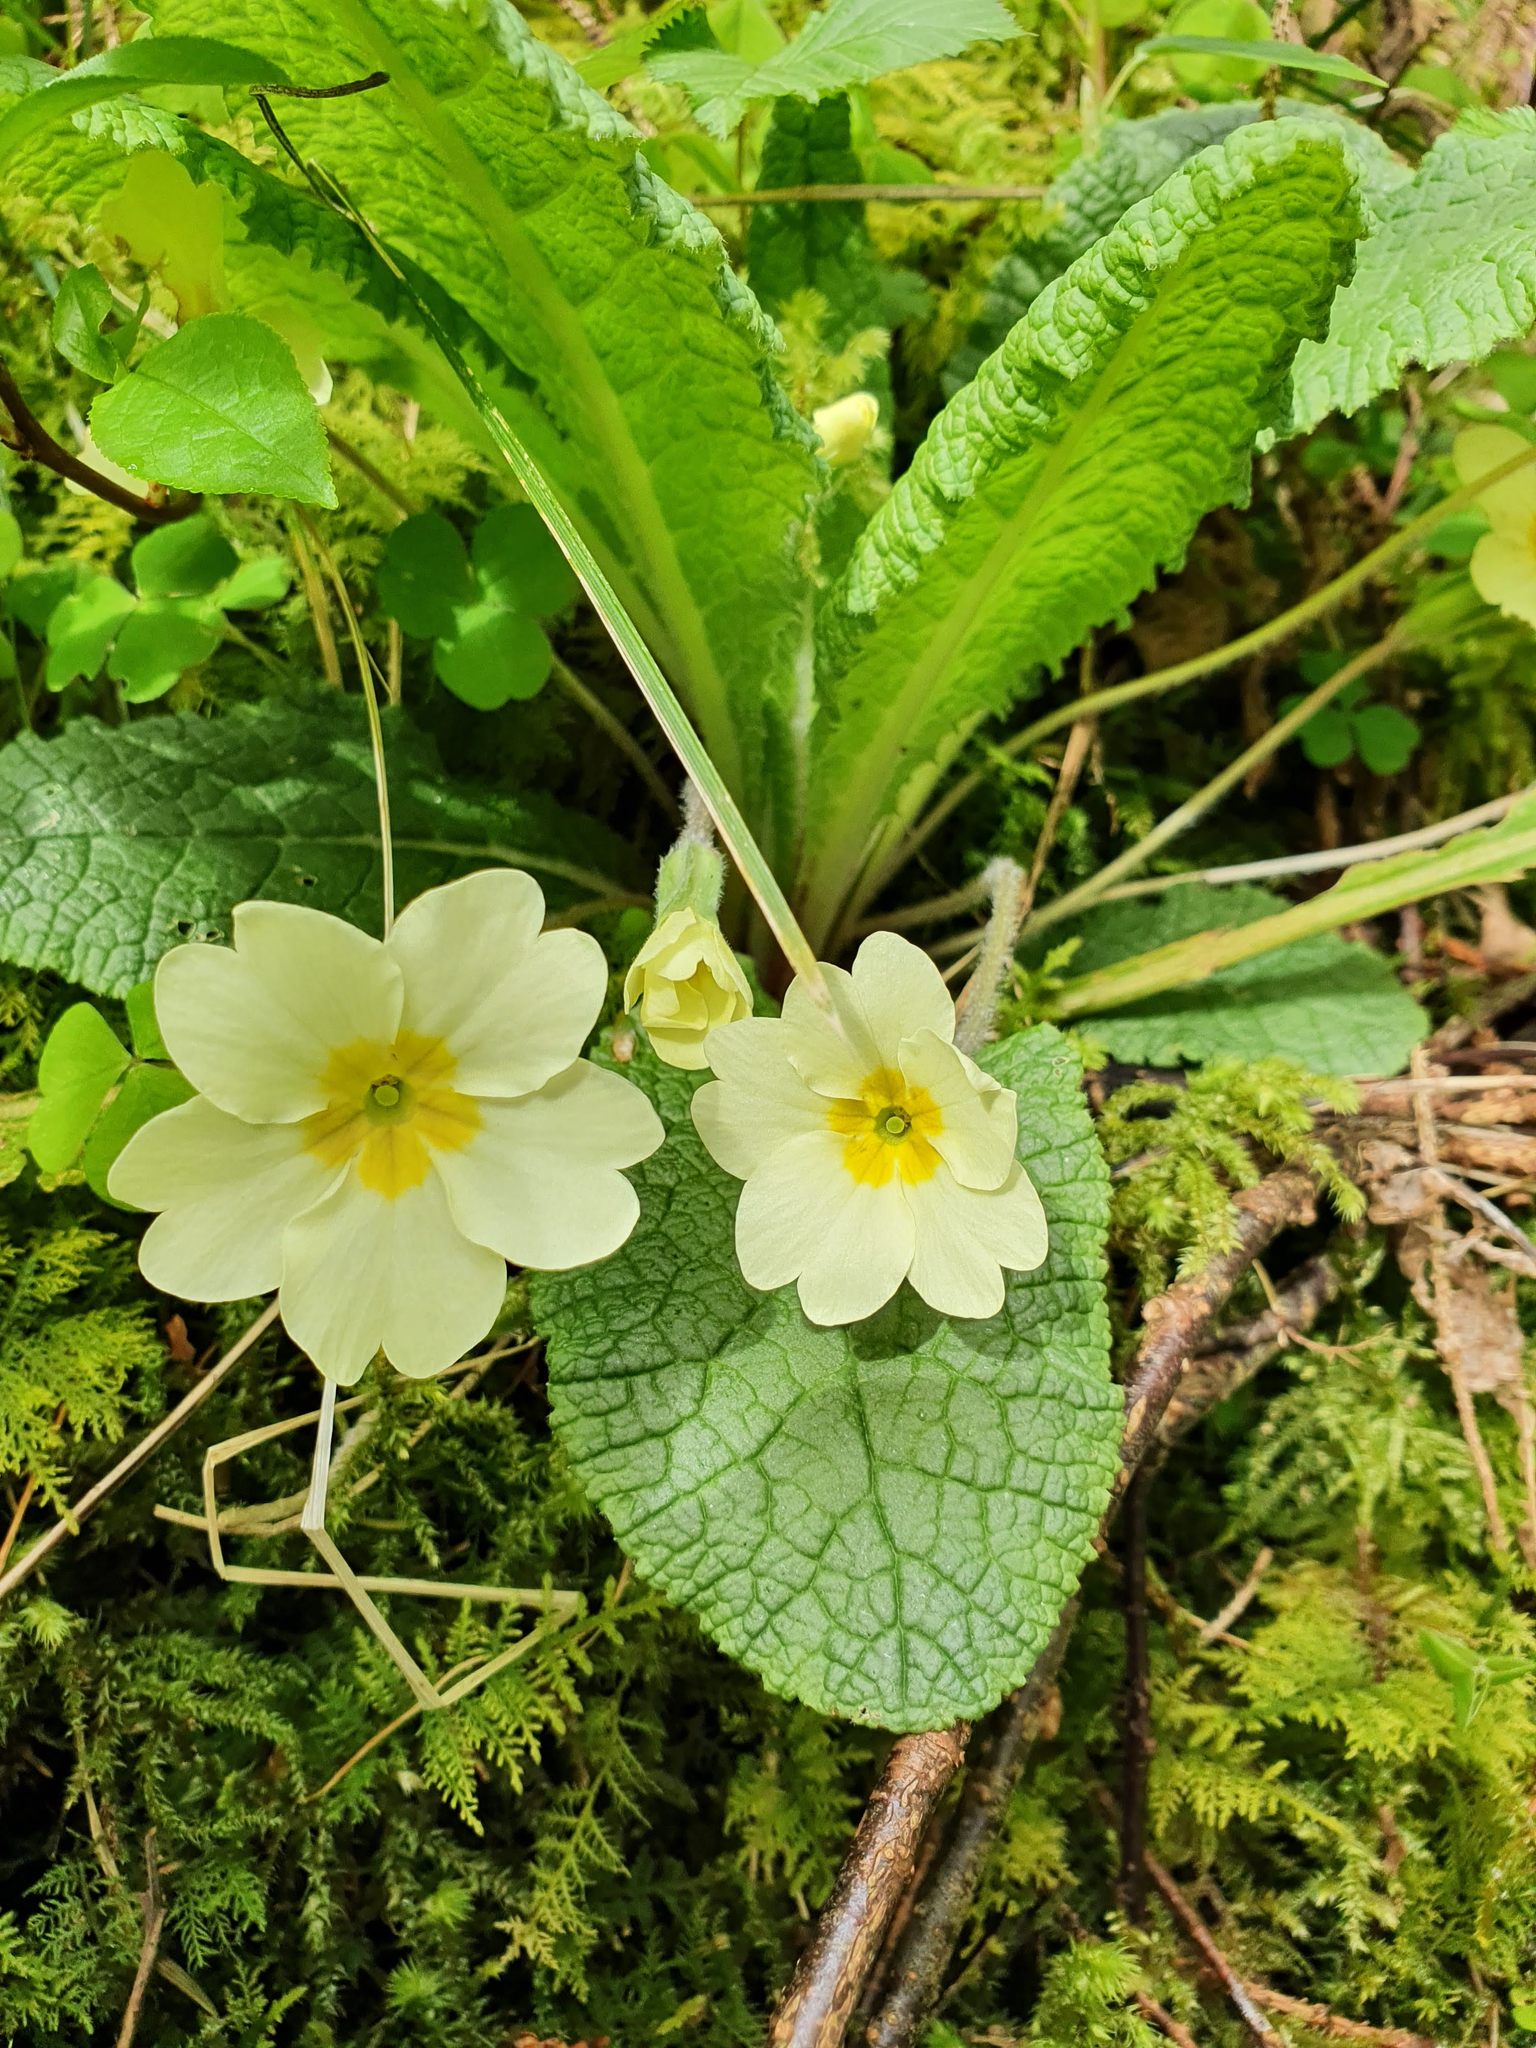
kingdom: Plantae
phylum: Tracheophyta
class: Magnoliopsida
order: Ericales
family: Primulaceae
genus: Primula
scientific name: Primula vulgaris
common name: Primrose
